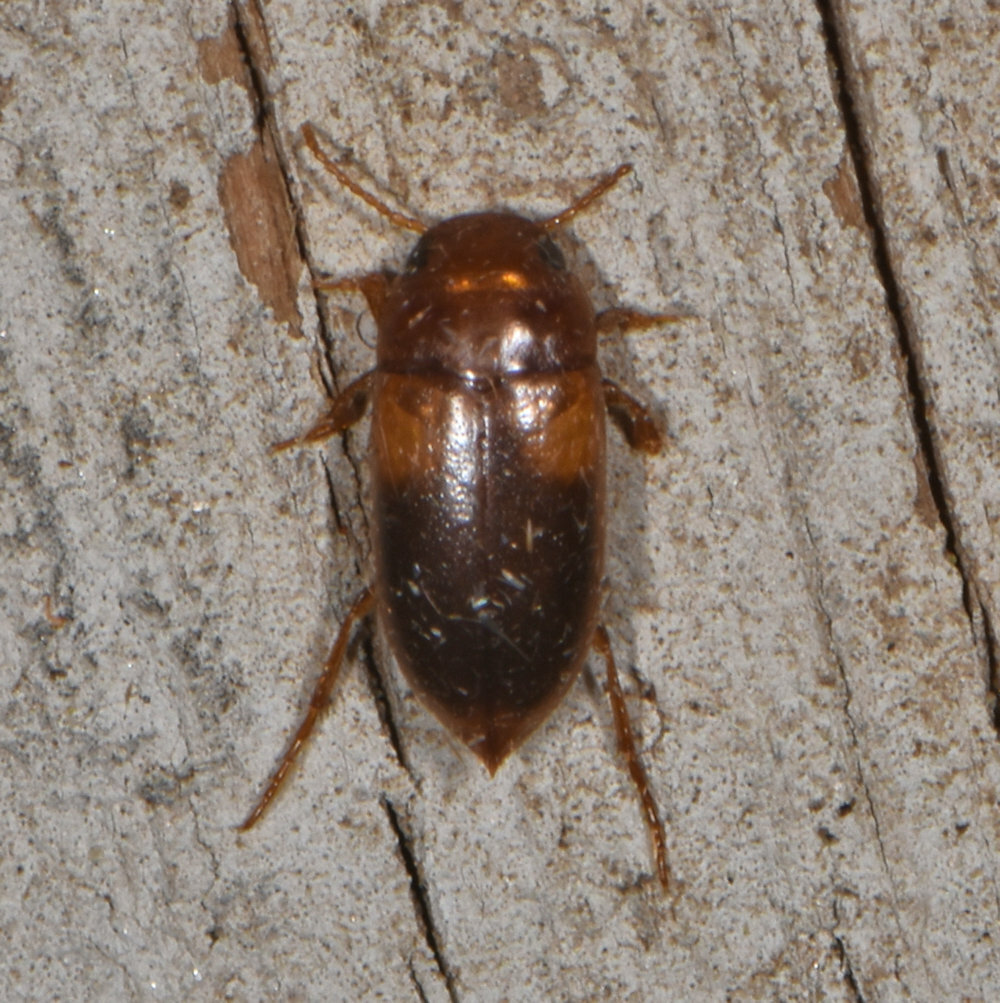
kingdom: Animalia
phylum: Arthropoda
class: Insecta
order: Coleoptera
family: Dytiscidae
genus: Celina
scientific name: Celina hubbelli
